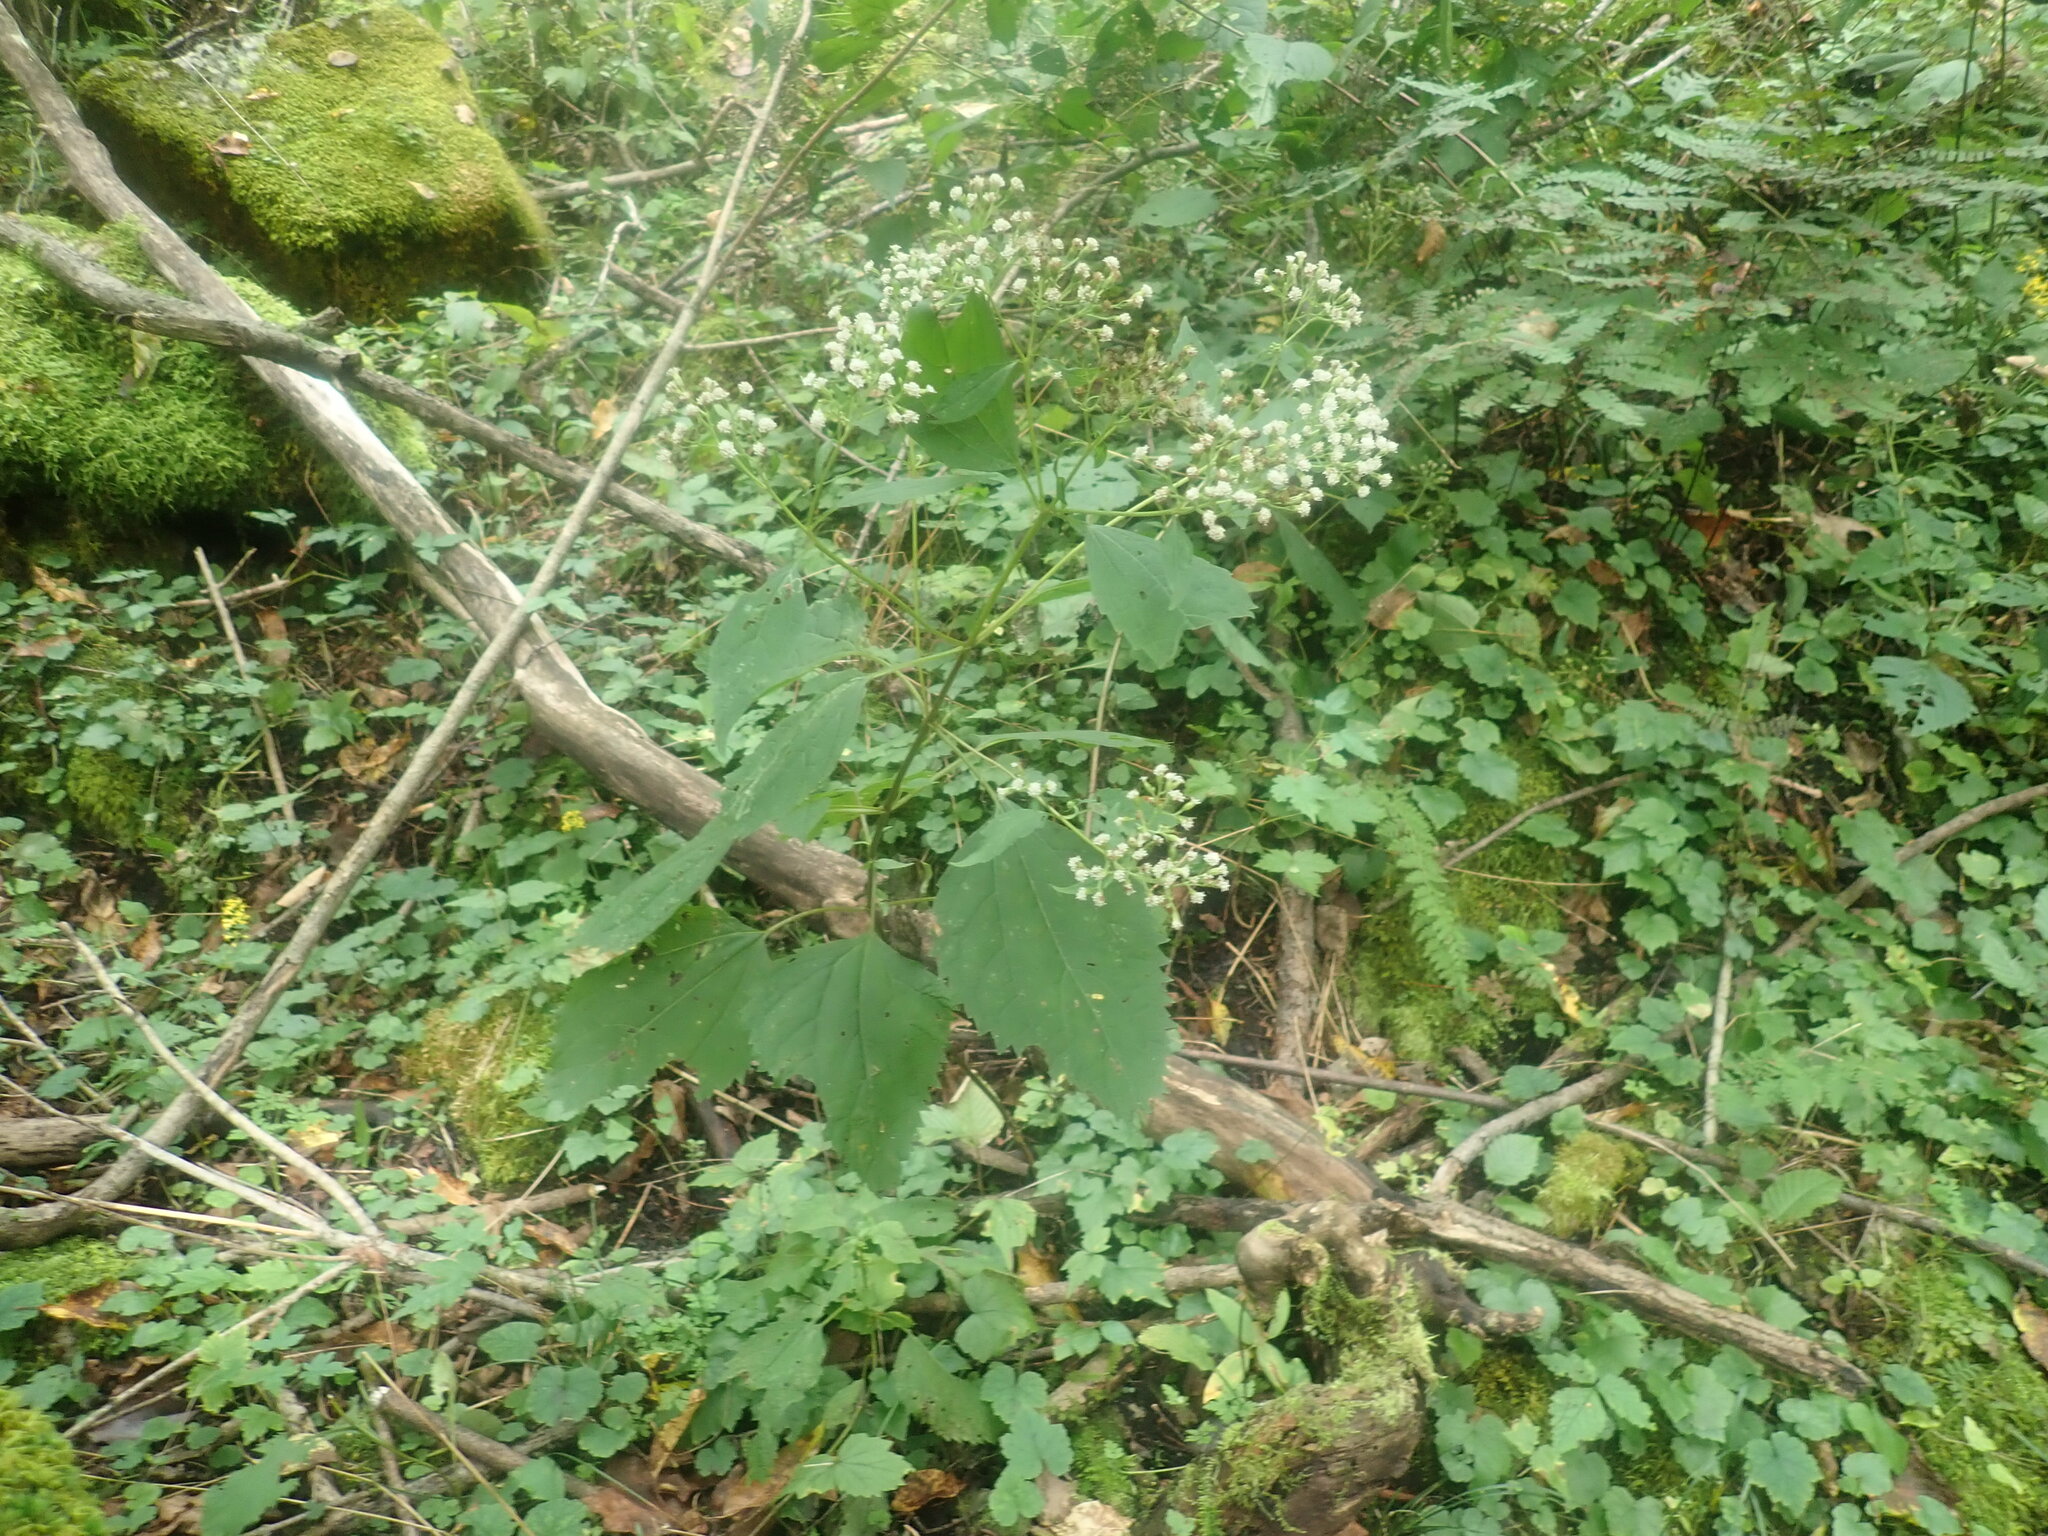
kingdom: Plantae
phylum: Tracheophyta
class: Magnoliopsida
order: Asterales
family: Asteraceae
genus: Ageratina
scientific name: Ageratina altissima
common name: White snakeroot
